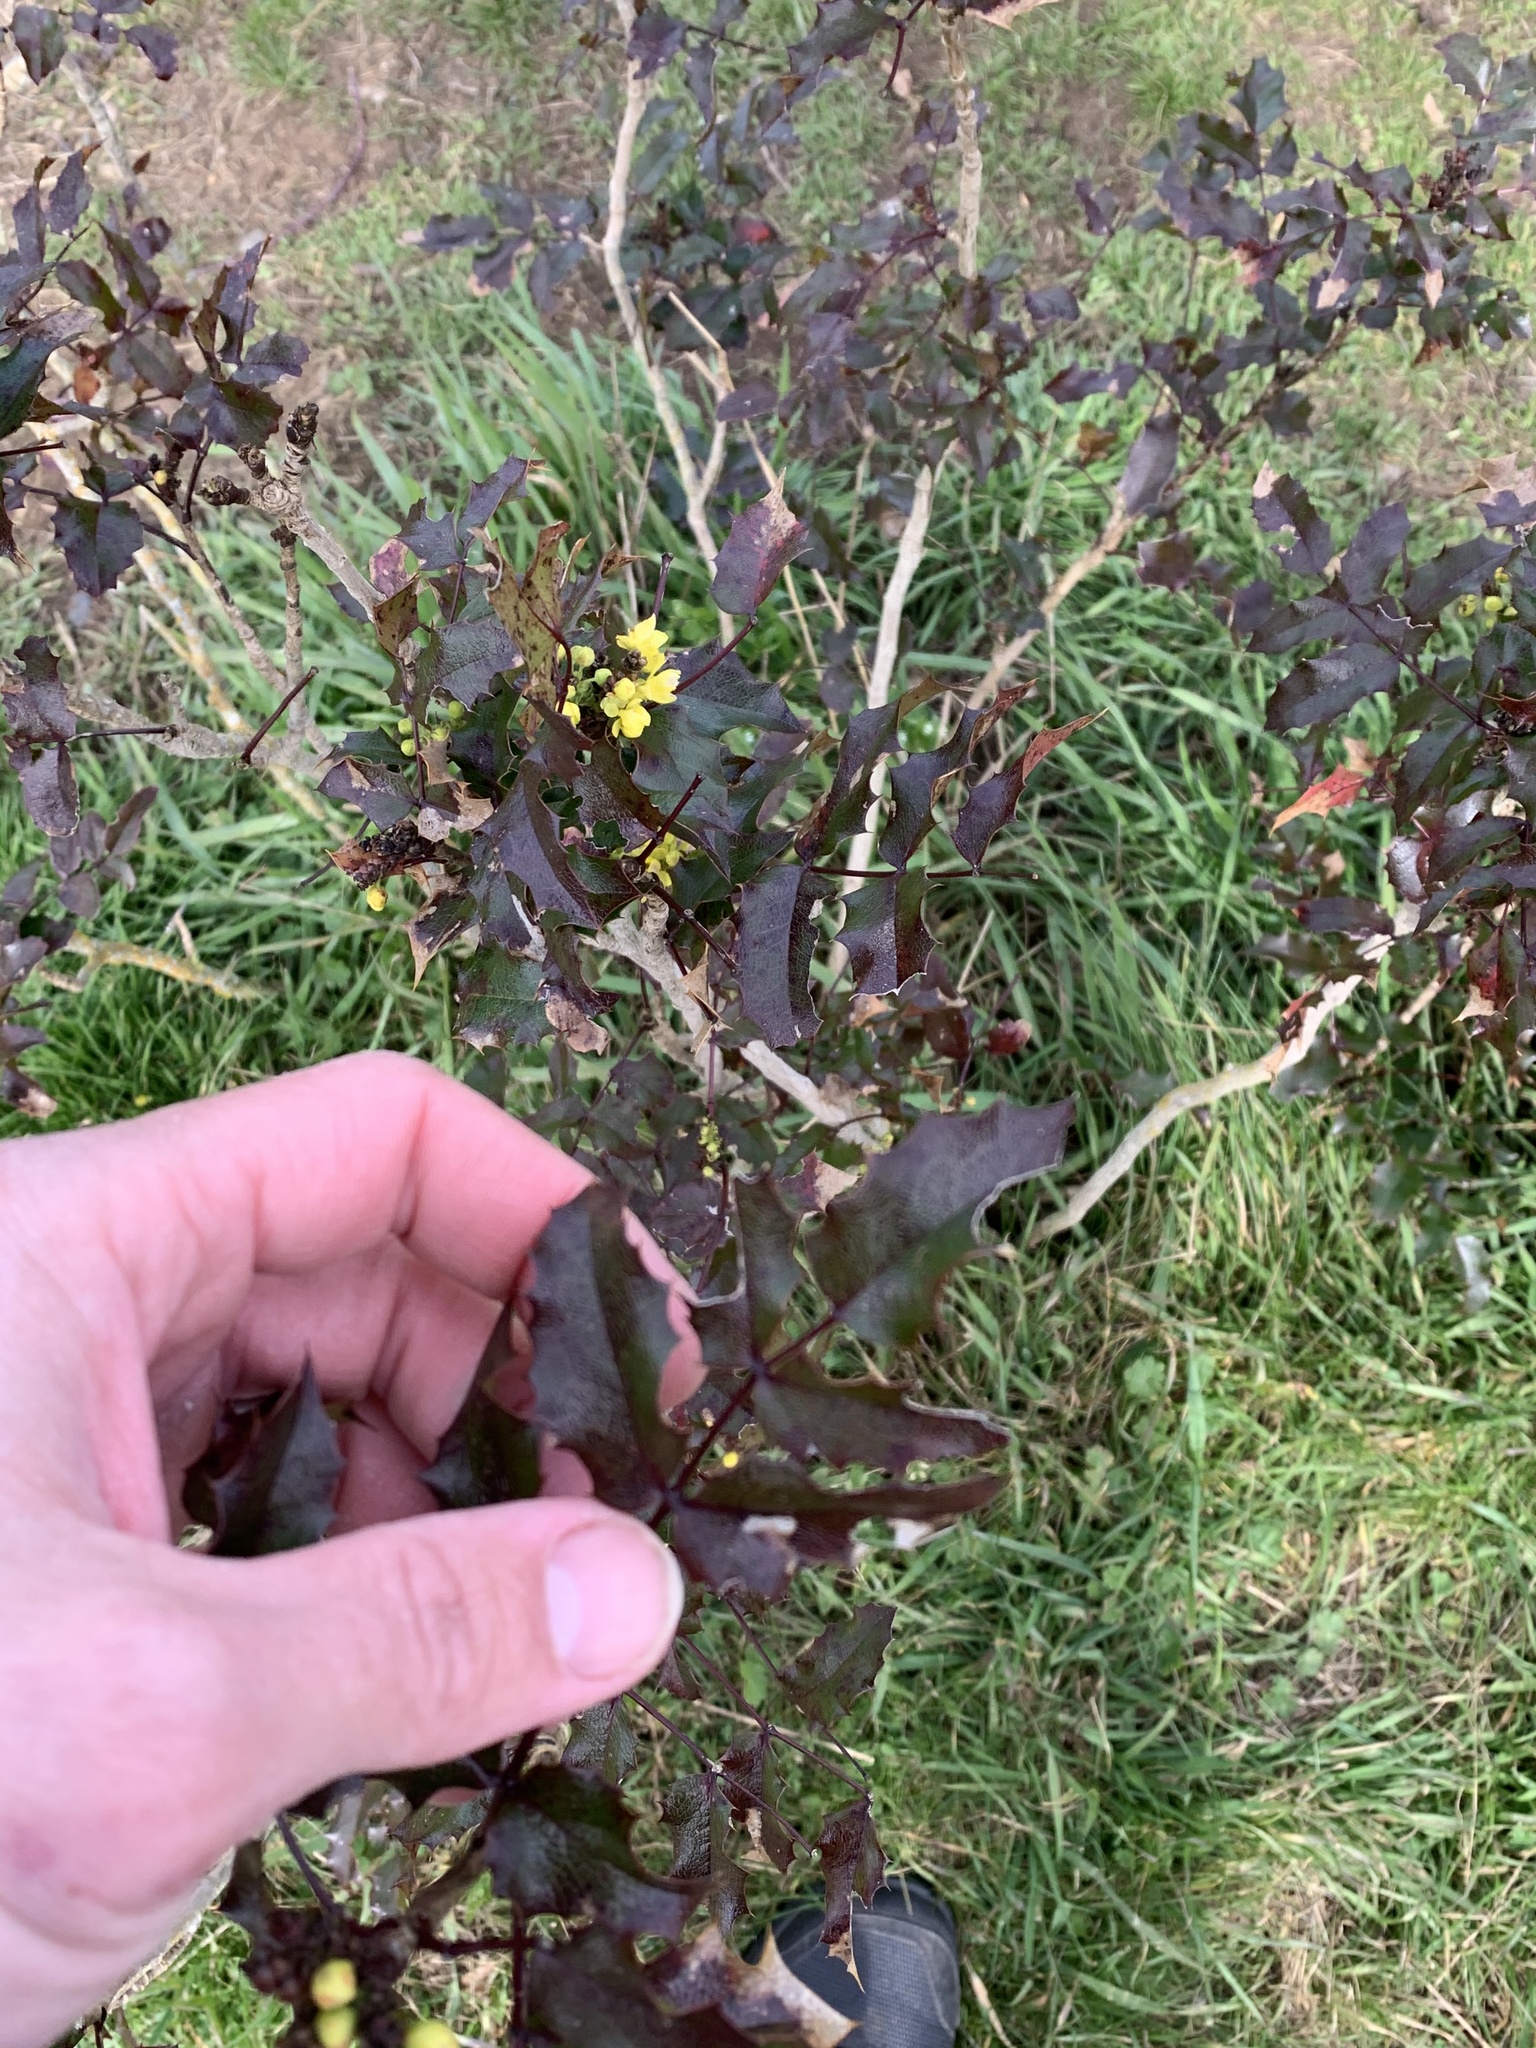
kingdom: Plantae
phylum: Tracheophyta
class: Magnoliopsida
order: Ranunculales
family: Berberidaceae
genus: Mahonia
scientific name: Mahonia aquifolium
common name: Oregon-grape
